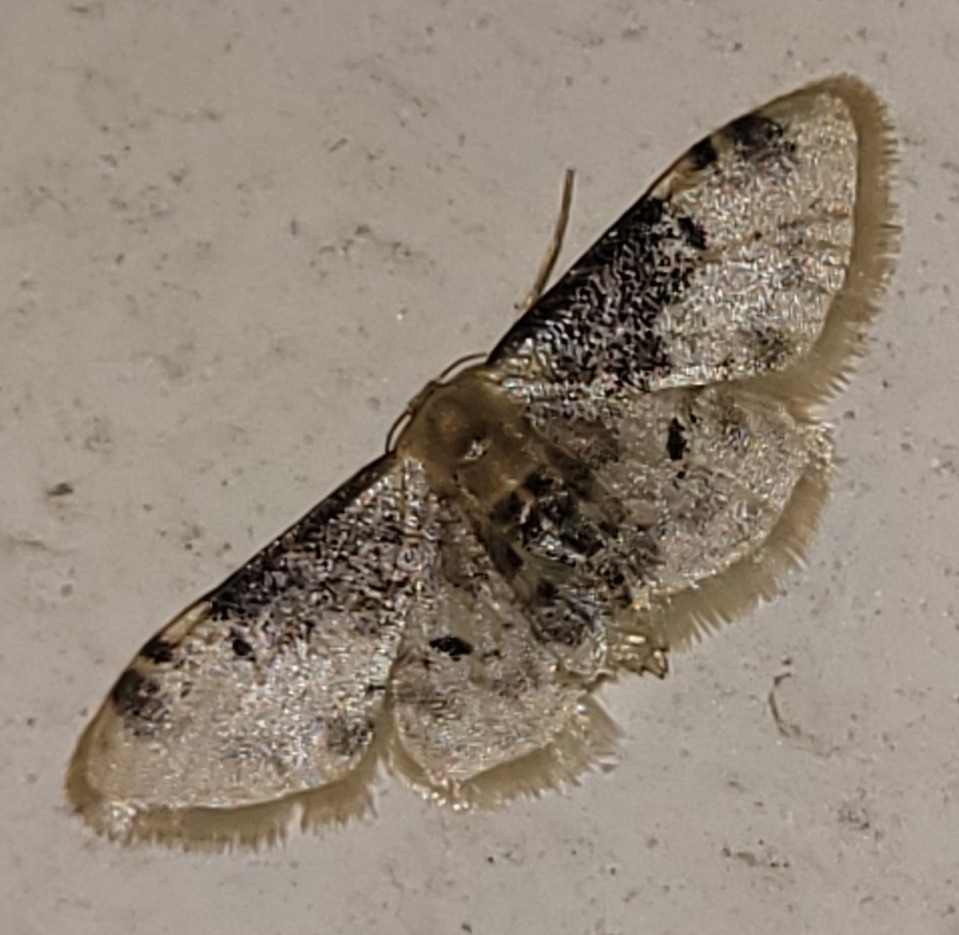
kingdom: Animalia
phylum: Arthropoda
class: Insecta
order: Lepidoptera
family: Geometridae
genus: Idaea
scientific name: Idaea filicata
